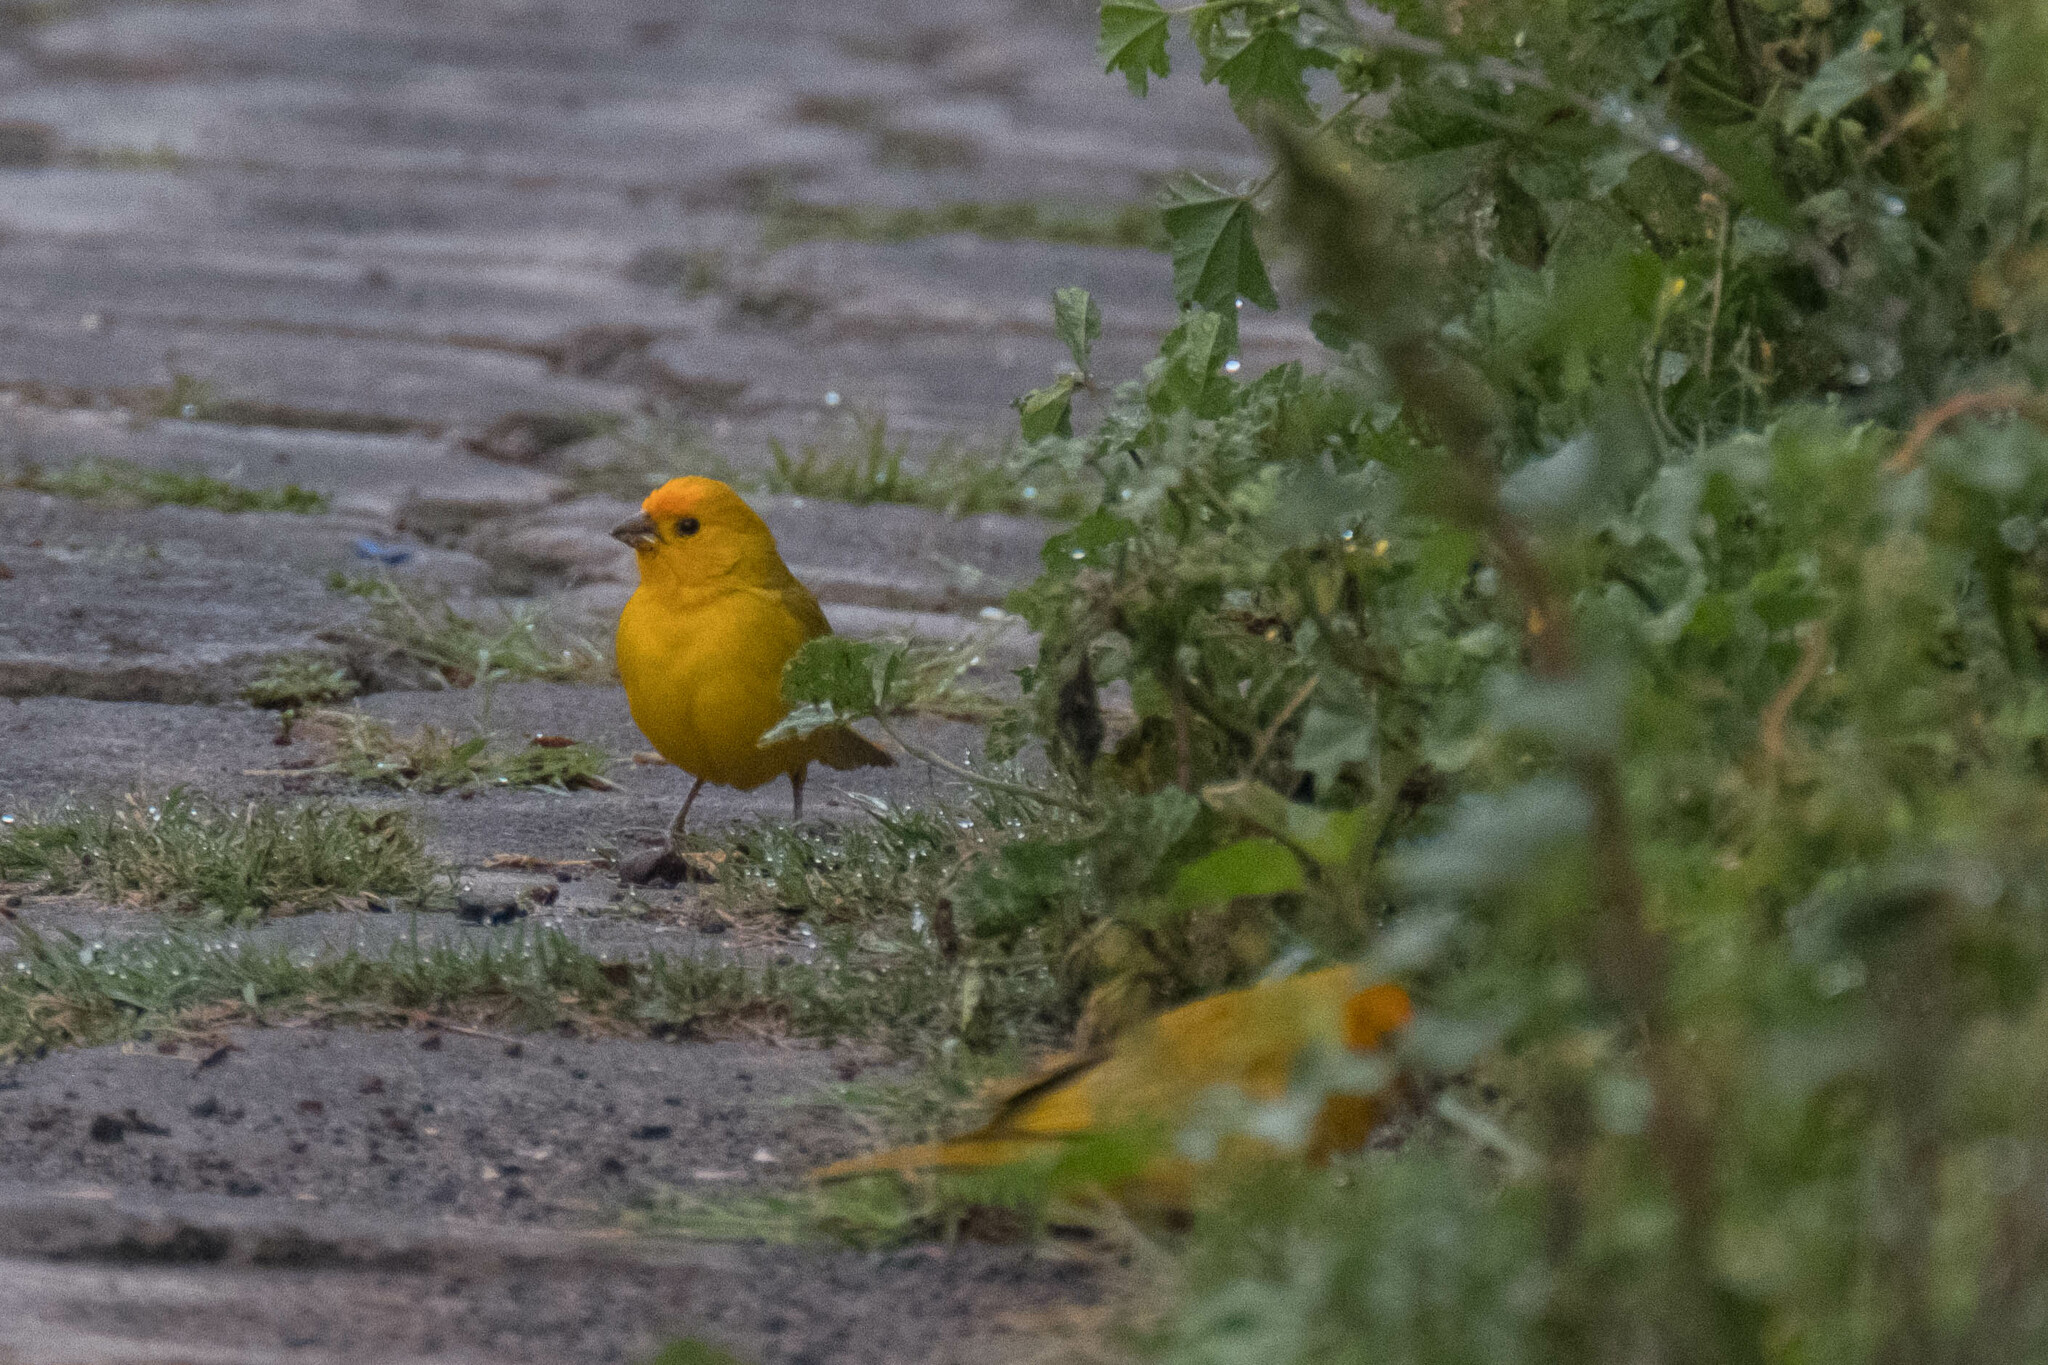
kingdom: Animalia
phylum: Chordata
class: Aves
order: Passeriformes
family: Thraupidae
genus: Sicalis
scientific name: Sicalis flaveola
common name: Saffron finch
